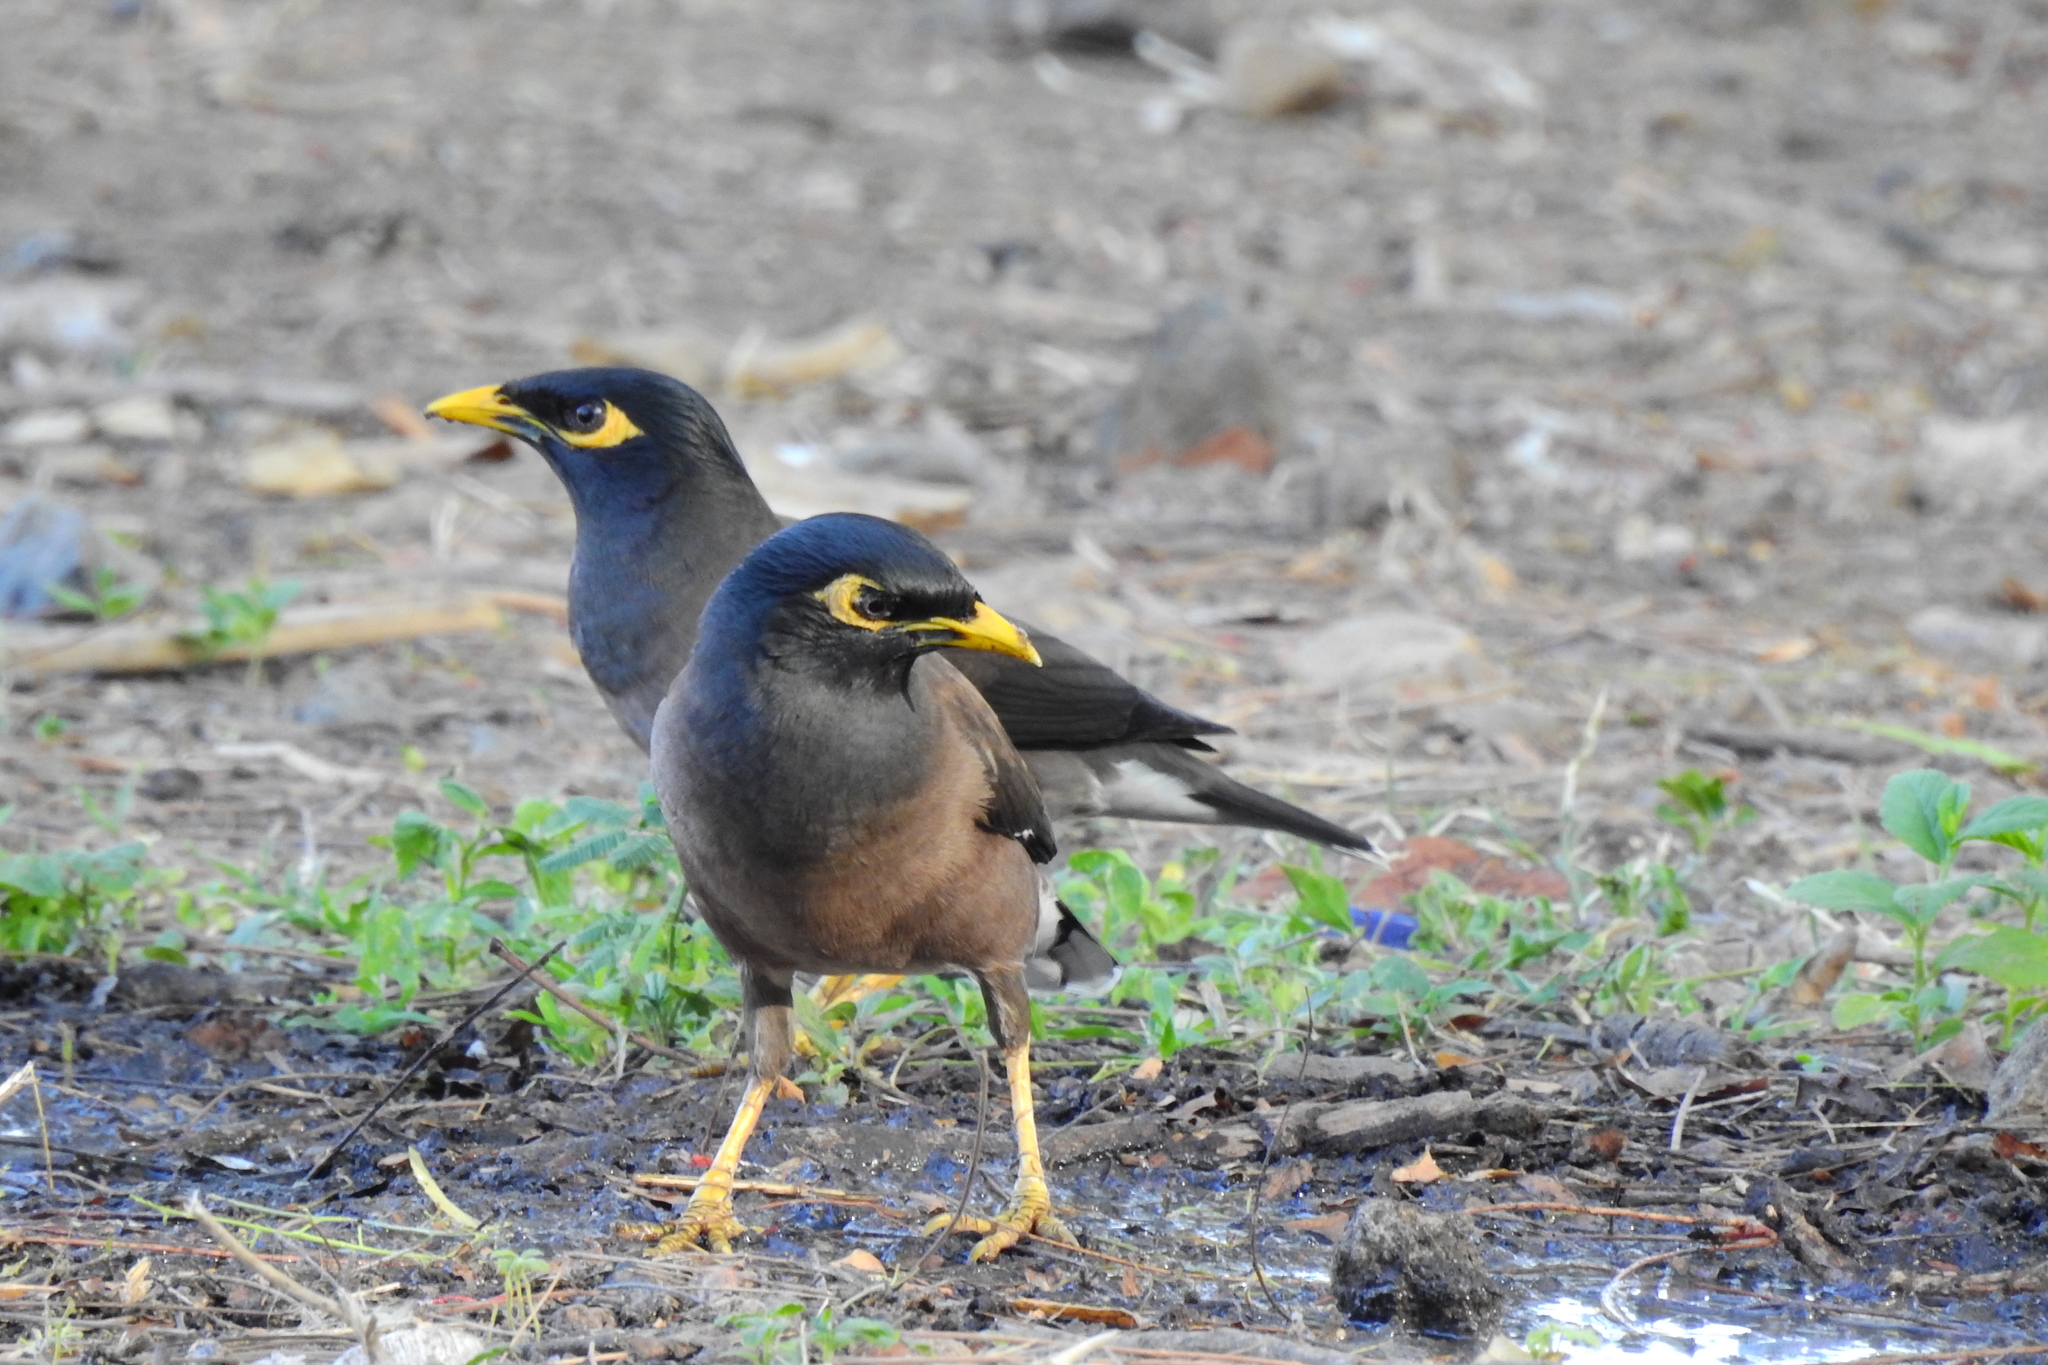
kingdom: Animalia
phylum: Chordata
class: Aves
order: Passeriformes
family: Sturnidae
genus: Acridotheres
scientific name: Acridotheres tristis
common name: Common myna
